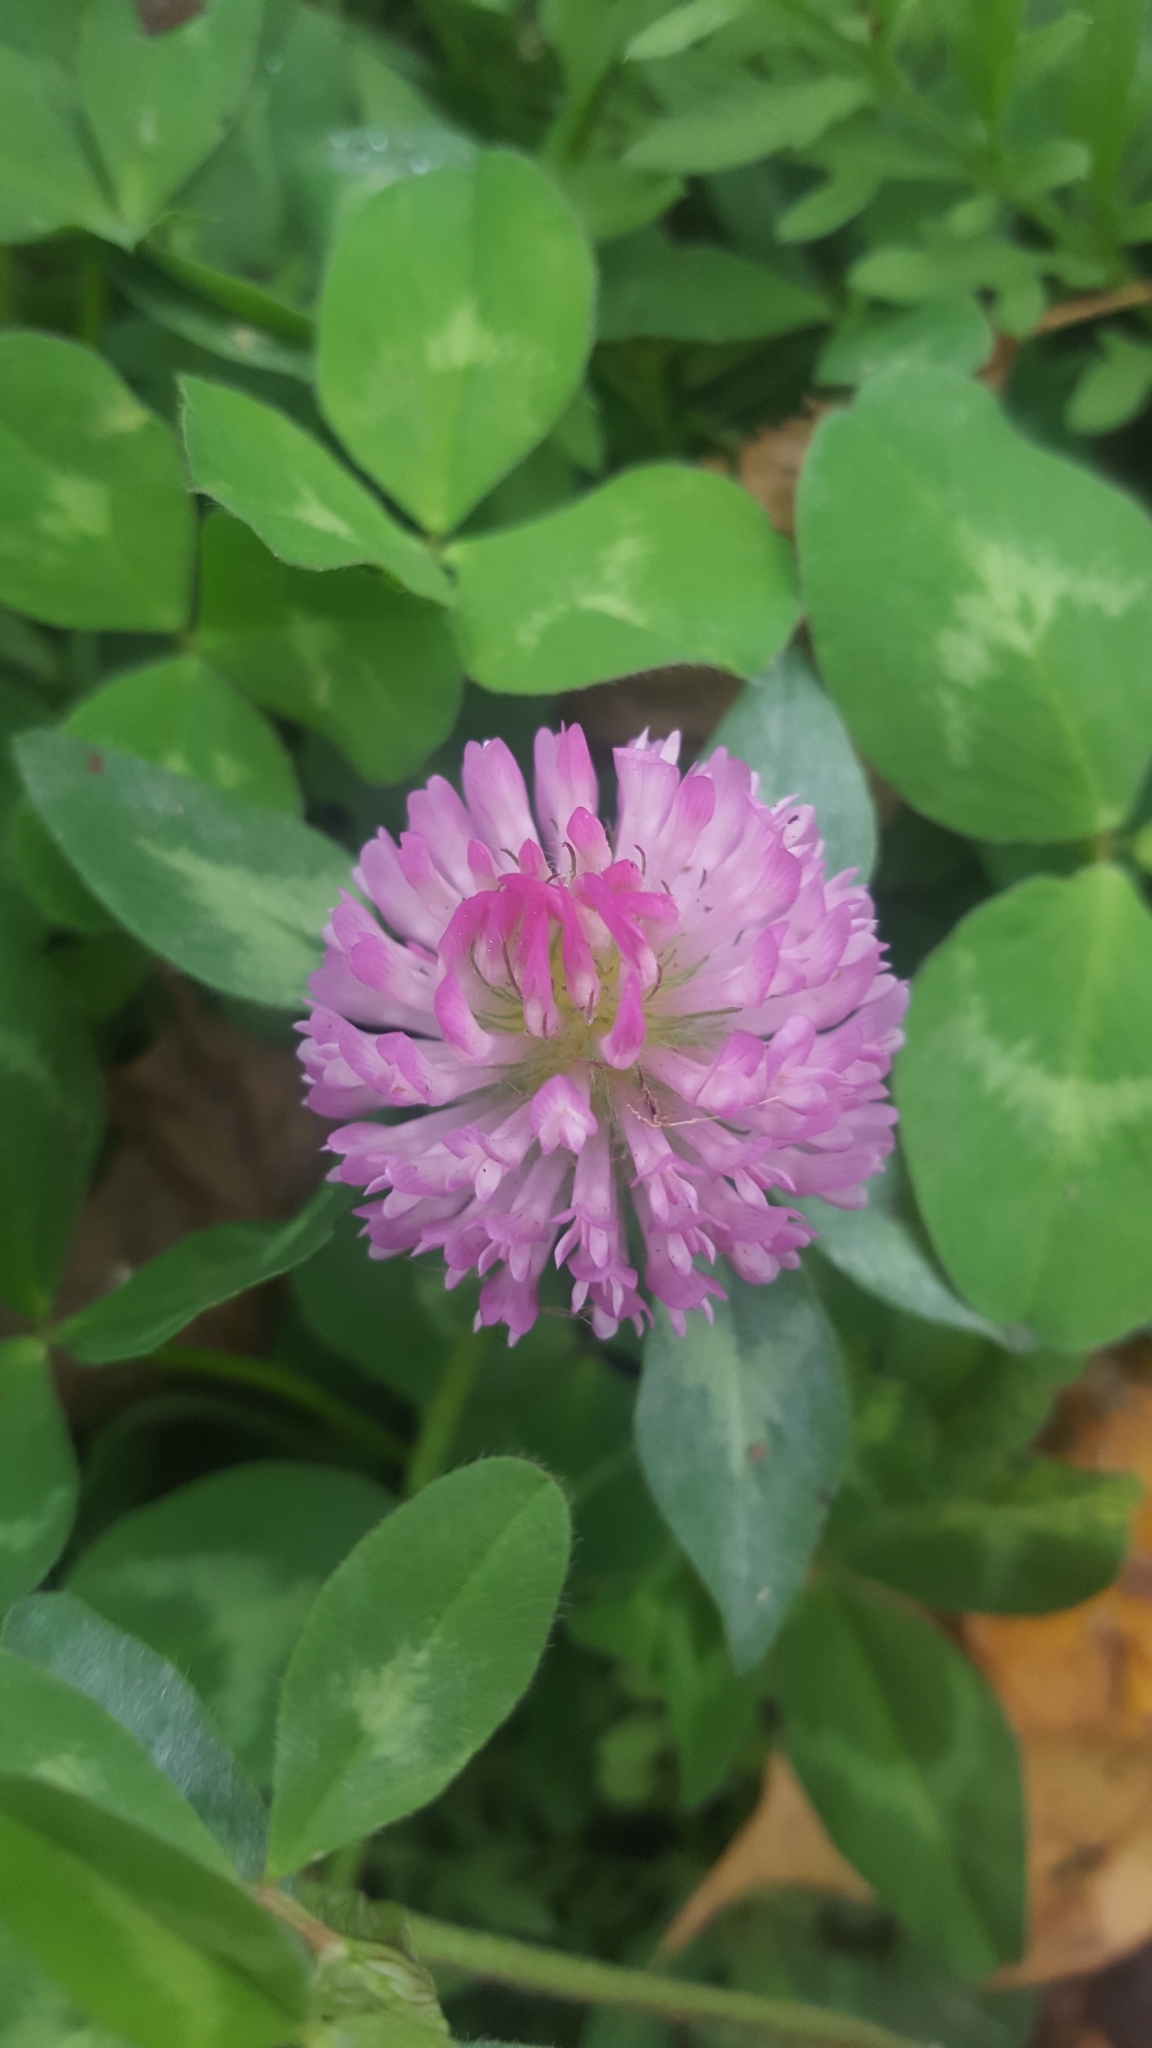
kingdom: Plantae
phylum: Tracheophyta
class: Magnoliopsida
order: Fabales
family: Fabaceae
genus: Trifolium
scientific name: Trifolium pratense
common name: Red clover
